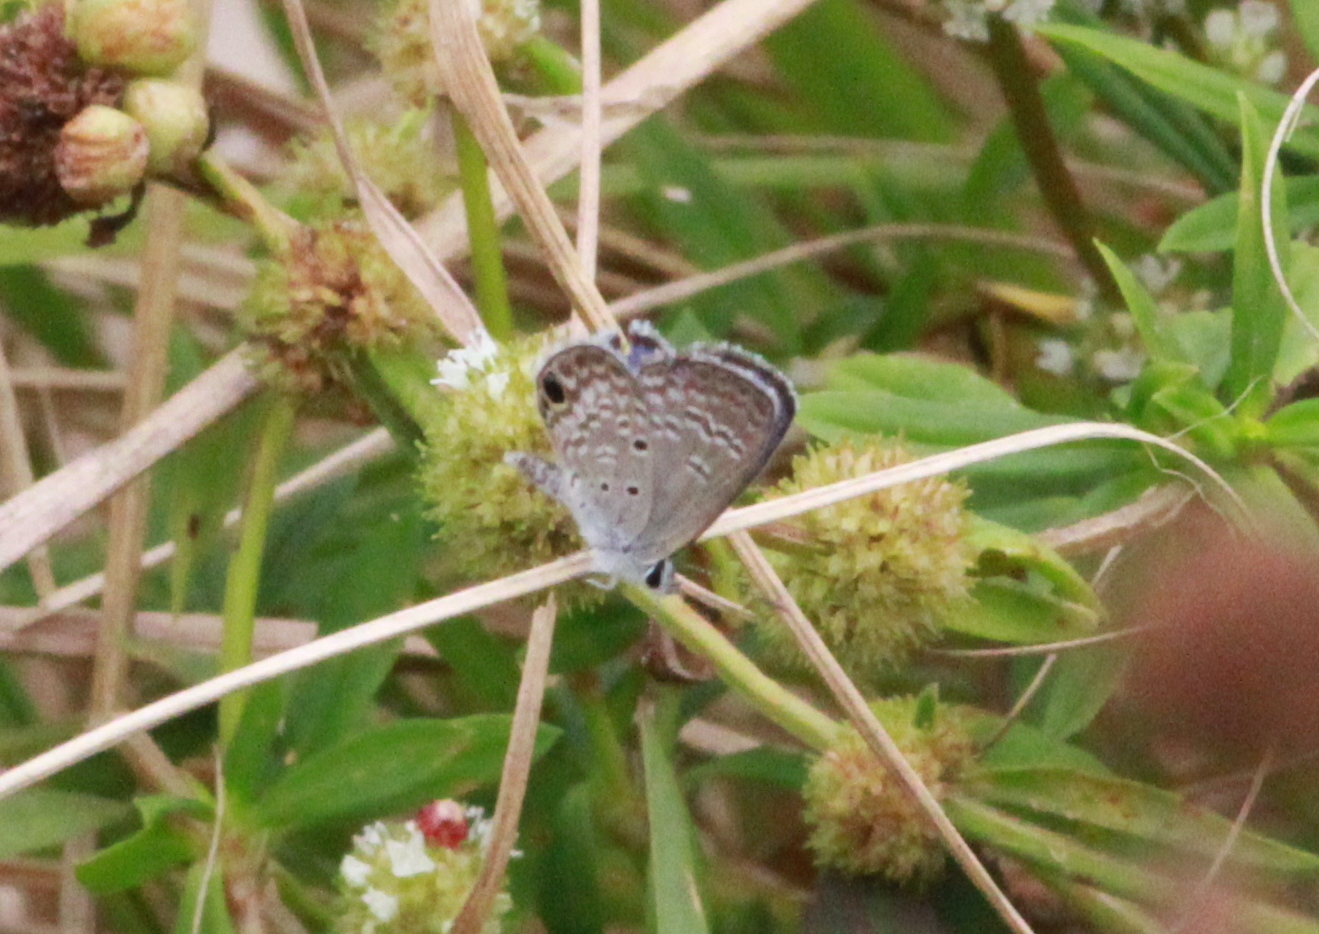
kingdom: Animalia
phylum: Arthropoda
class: Insecta
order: Lepidoptera
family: Lycaenidae
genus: Hemiargus
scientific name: Hemiargus ceraunus
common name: Ceraunus blue
